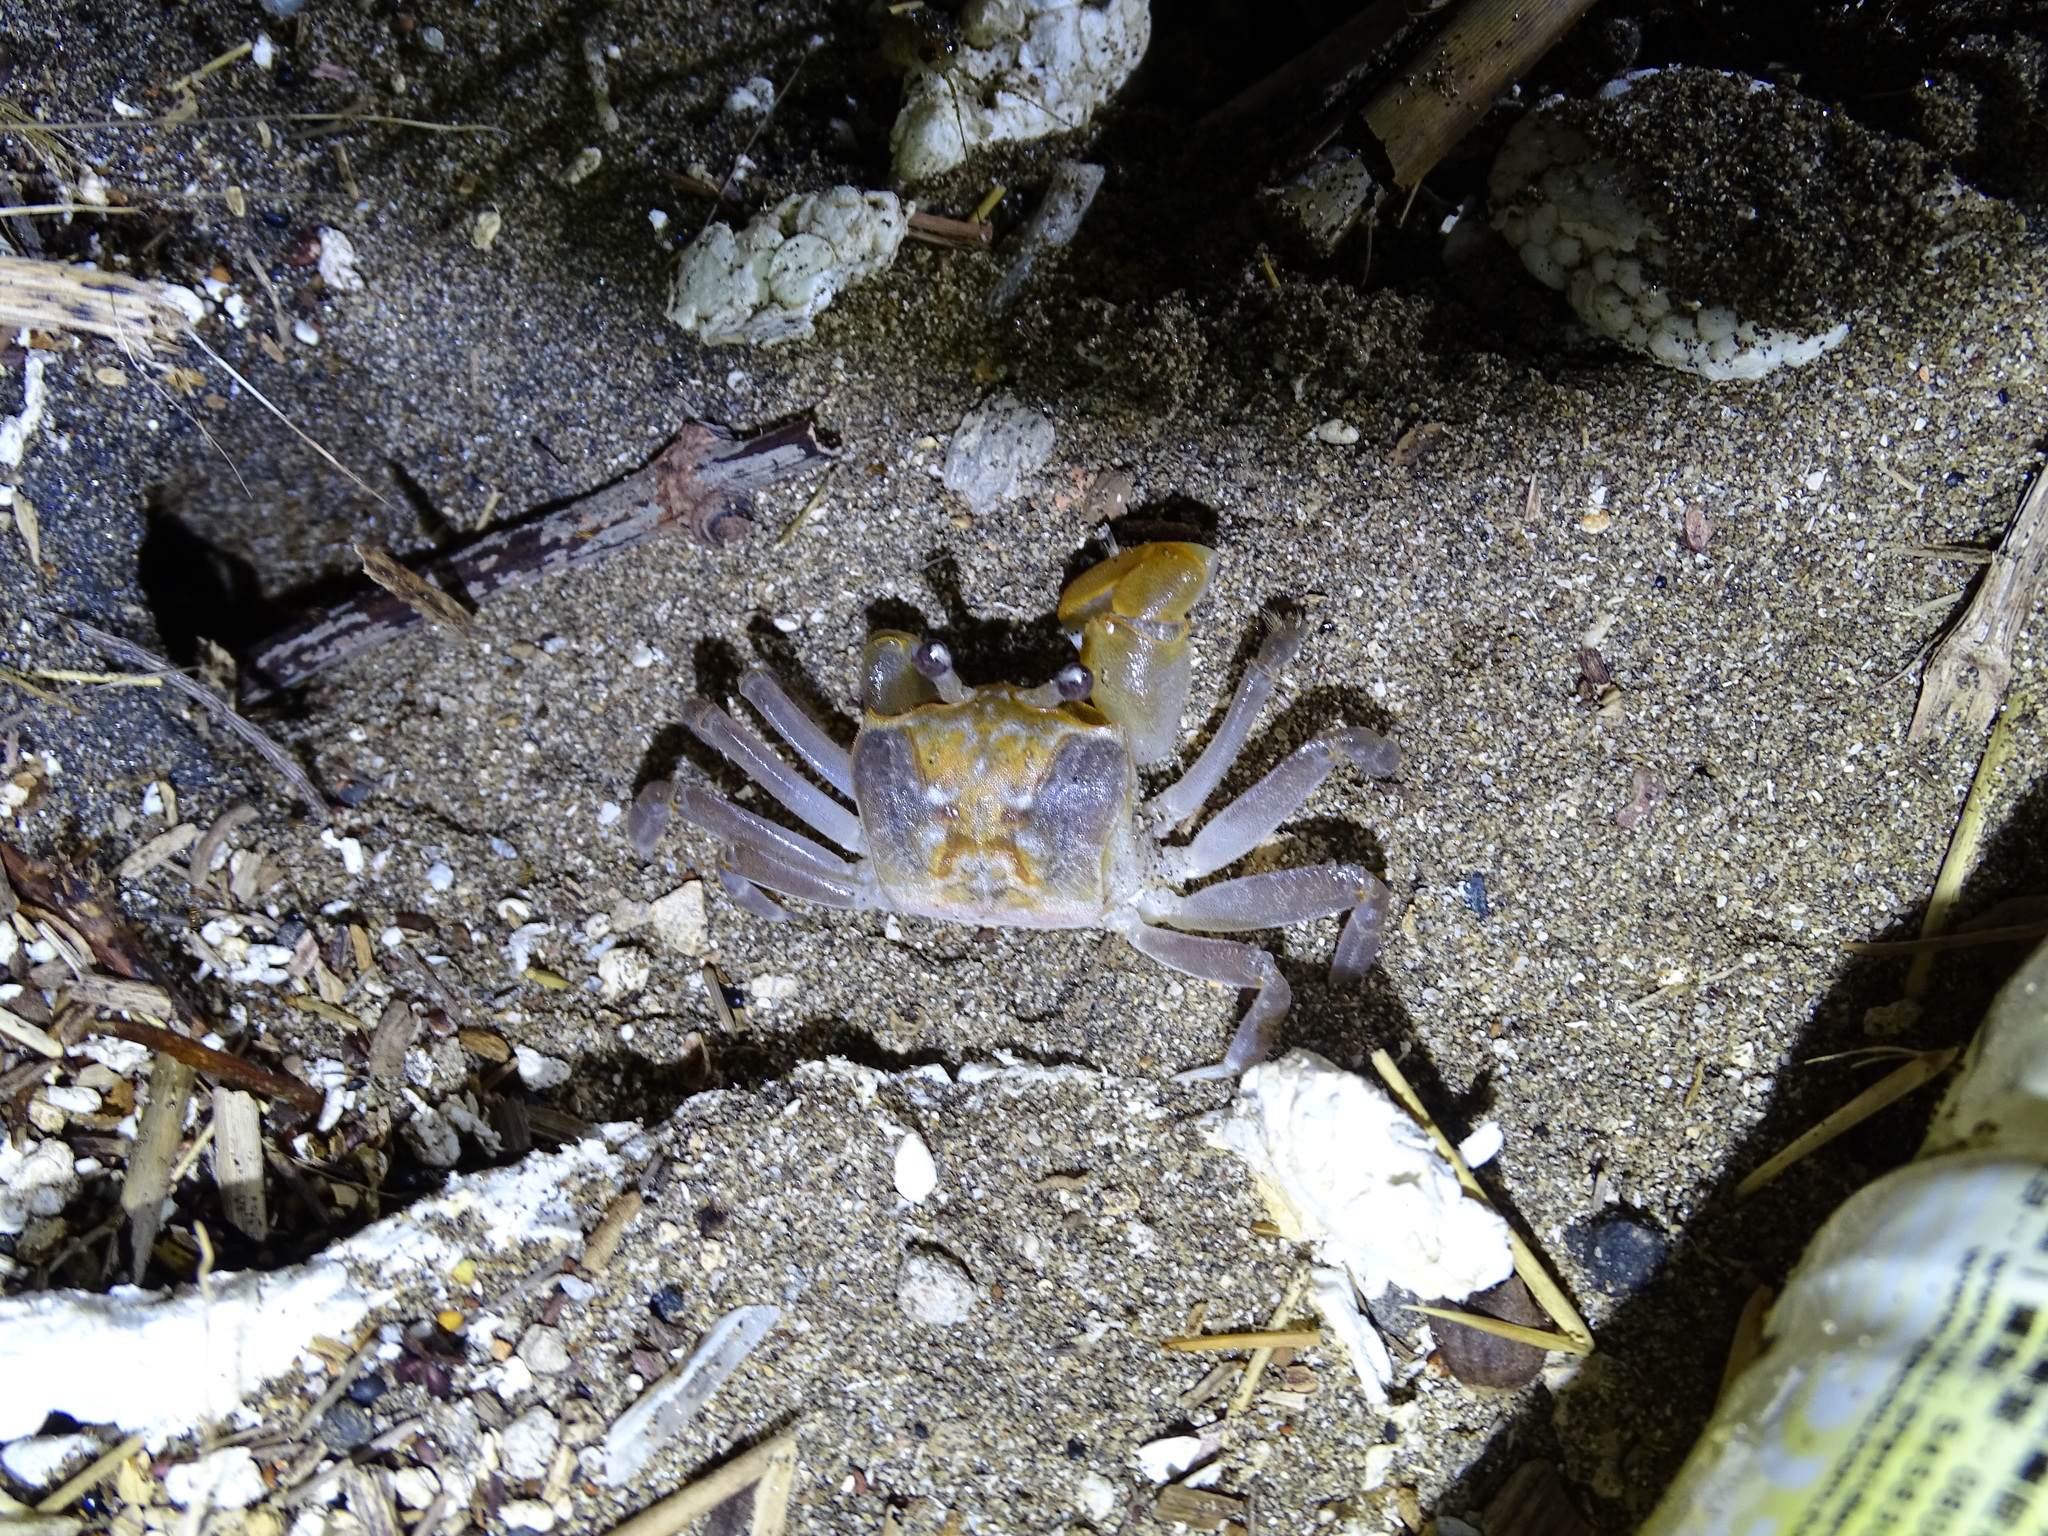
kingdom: Animalia
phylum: Arthropoda
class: Malacostraca
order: Decapoda
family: Ocypodidae
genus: Ocypode
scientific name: Ocypode sinensis
